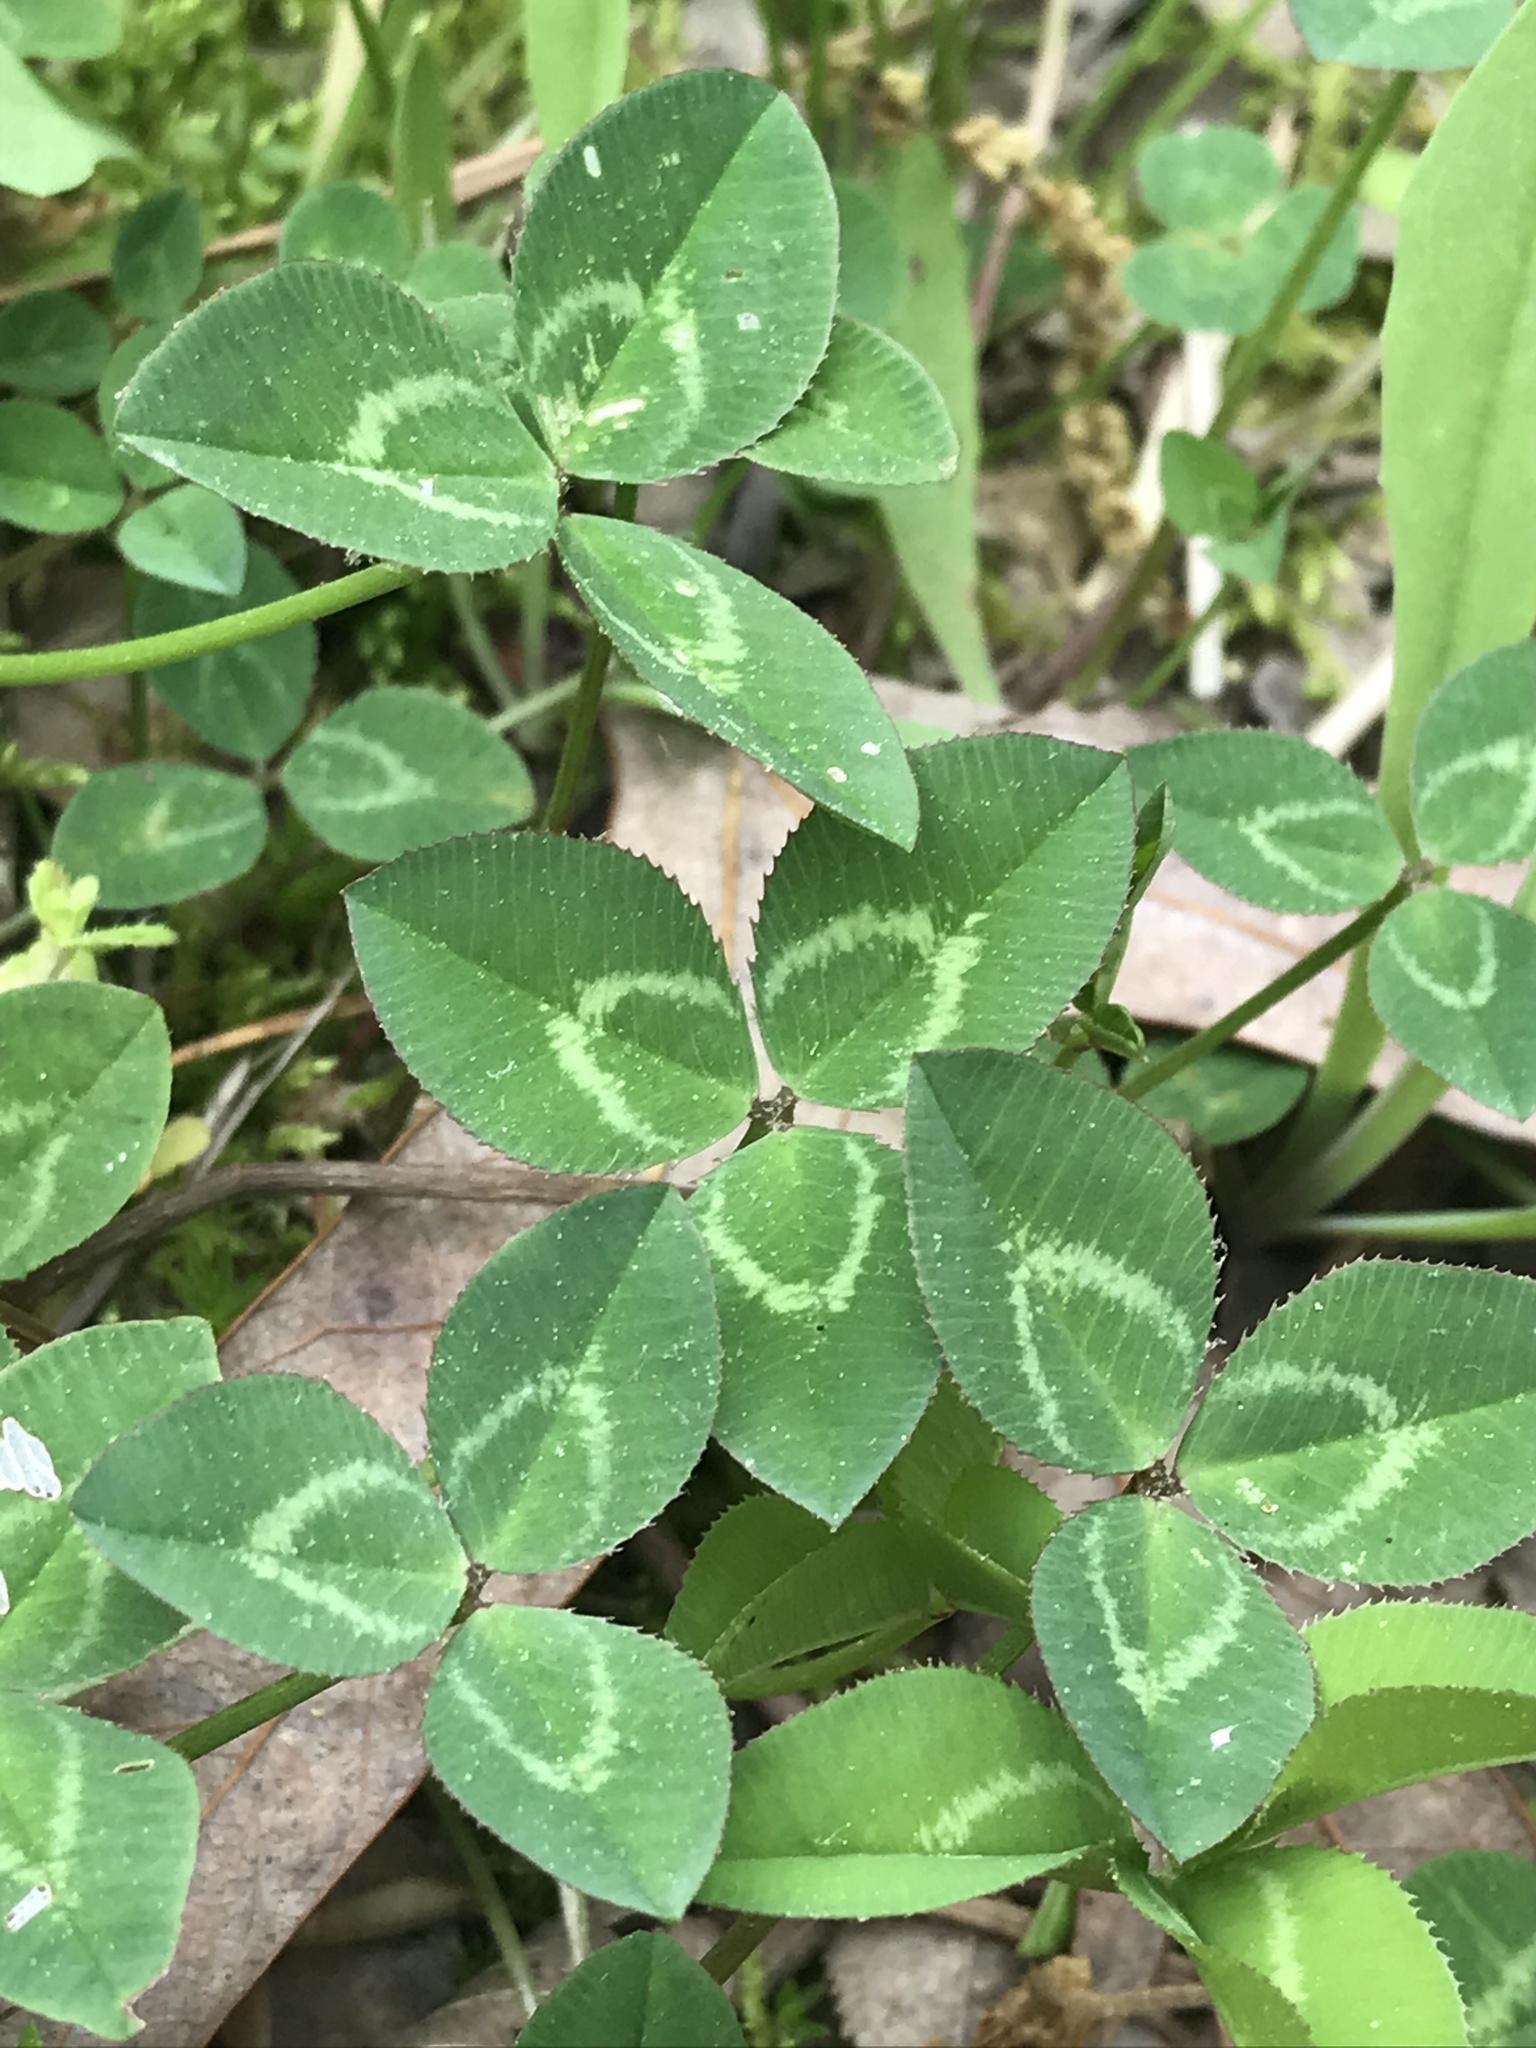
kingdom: Plantae
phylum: Tracheophyta
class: Magnoliopsida
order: Fabales
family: Fabaceae
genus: Trifolium
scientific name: Trifolium pratense
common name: Red clover
